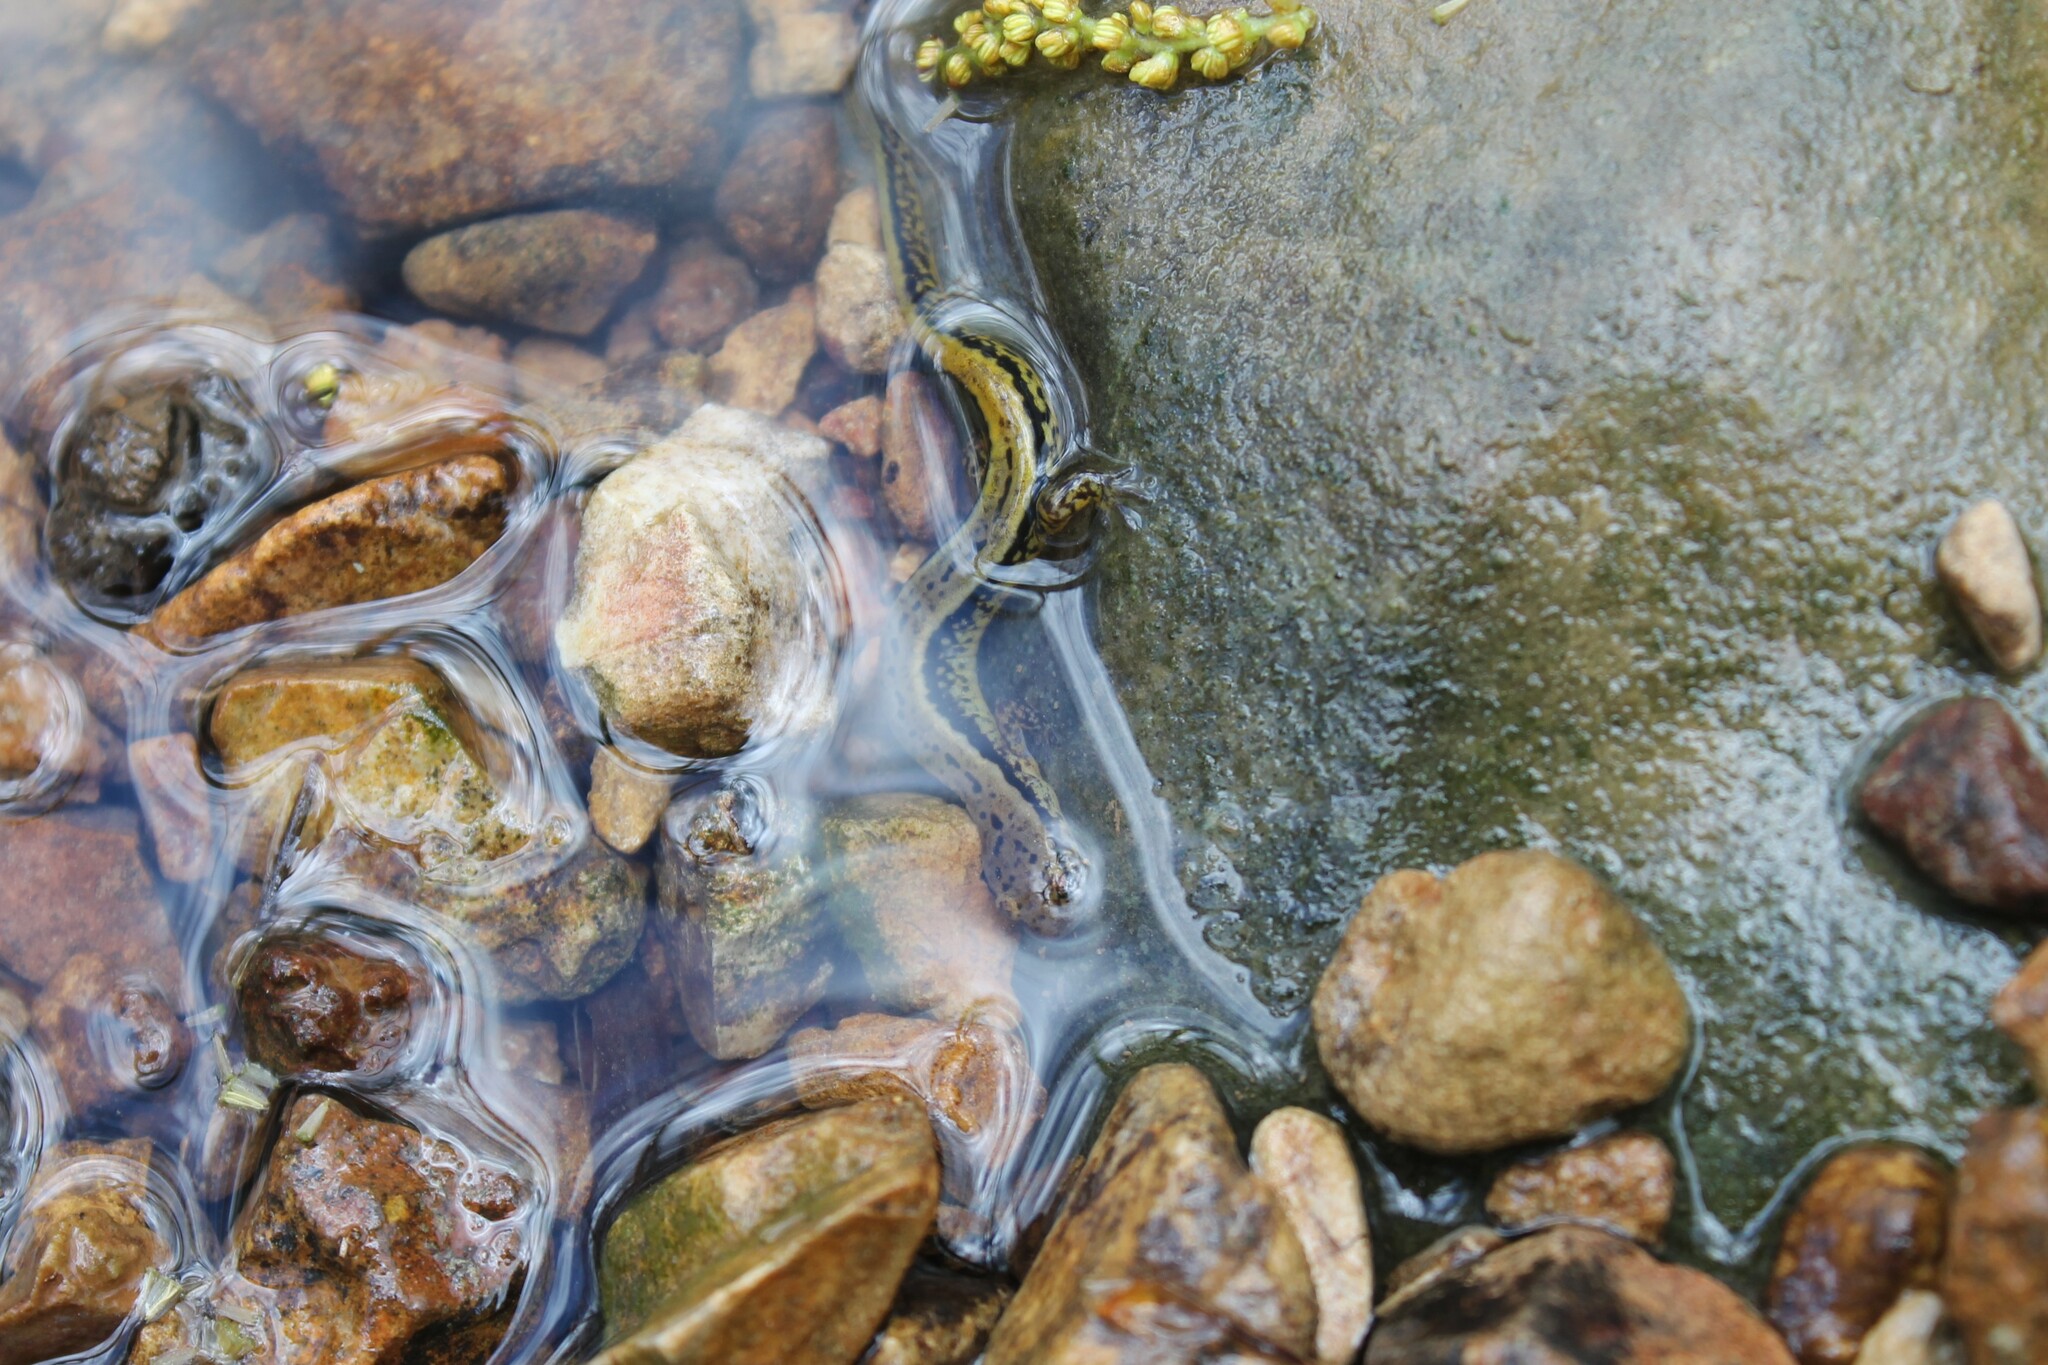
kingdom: Animalia
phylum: Chordata
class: Amphibia
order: Caudata
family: Plethodontidae
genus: Eurycea
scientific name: Eurycea cirrigera
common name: Southern two-lined salamander
